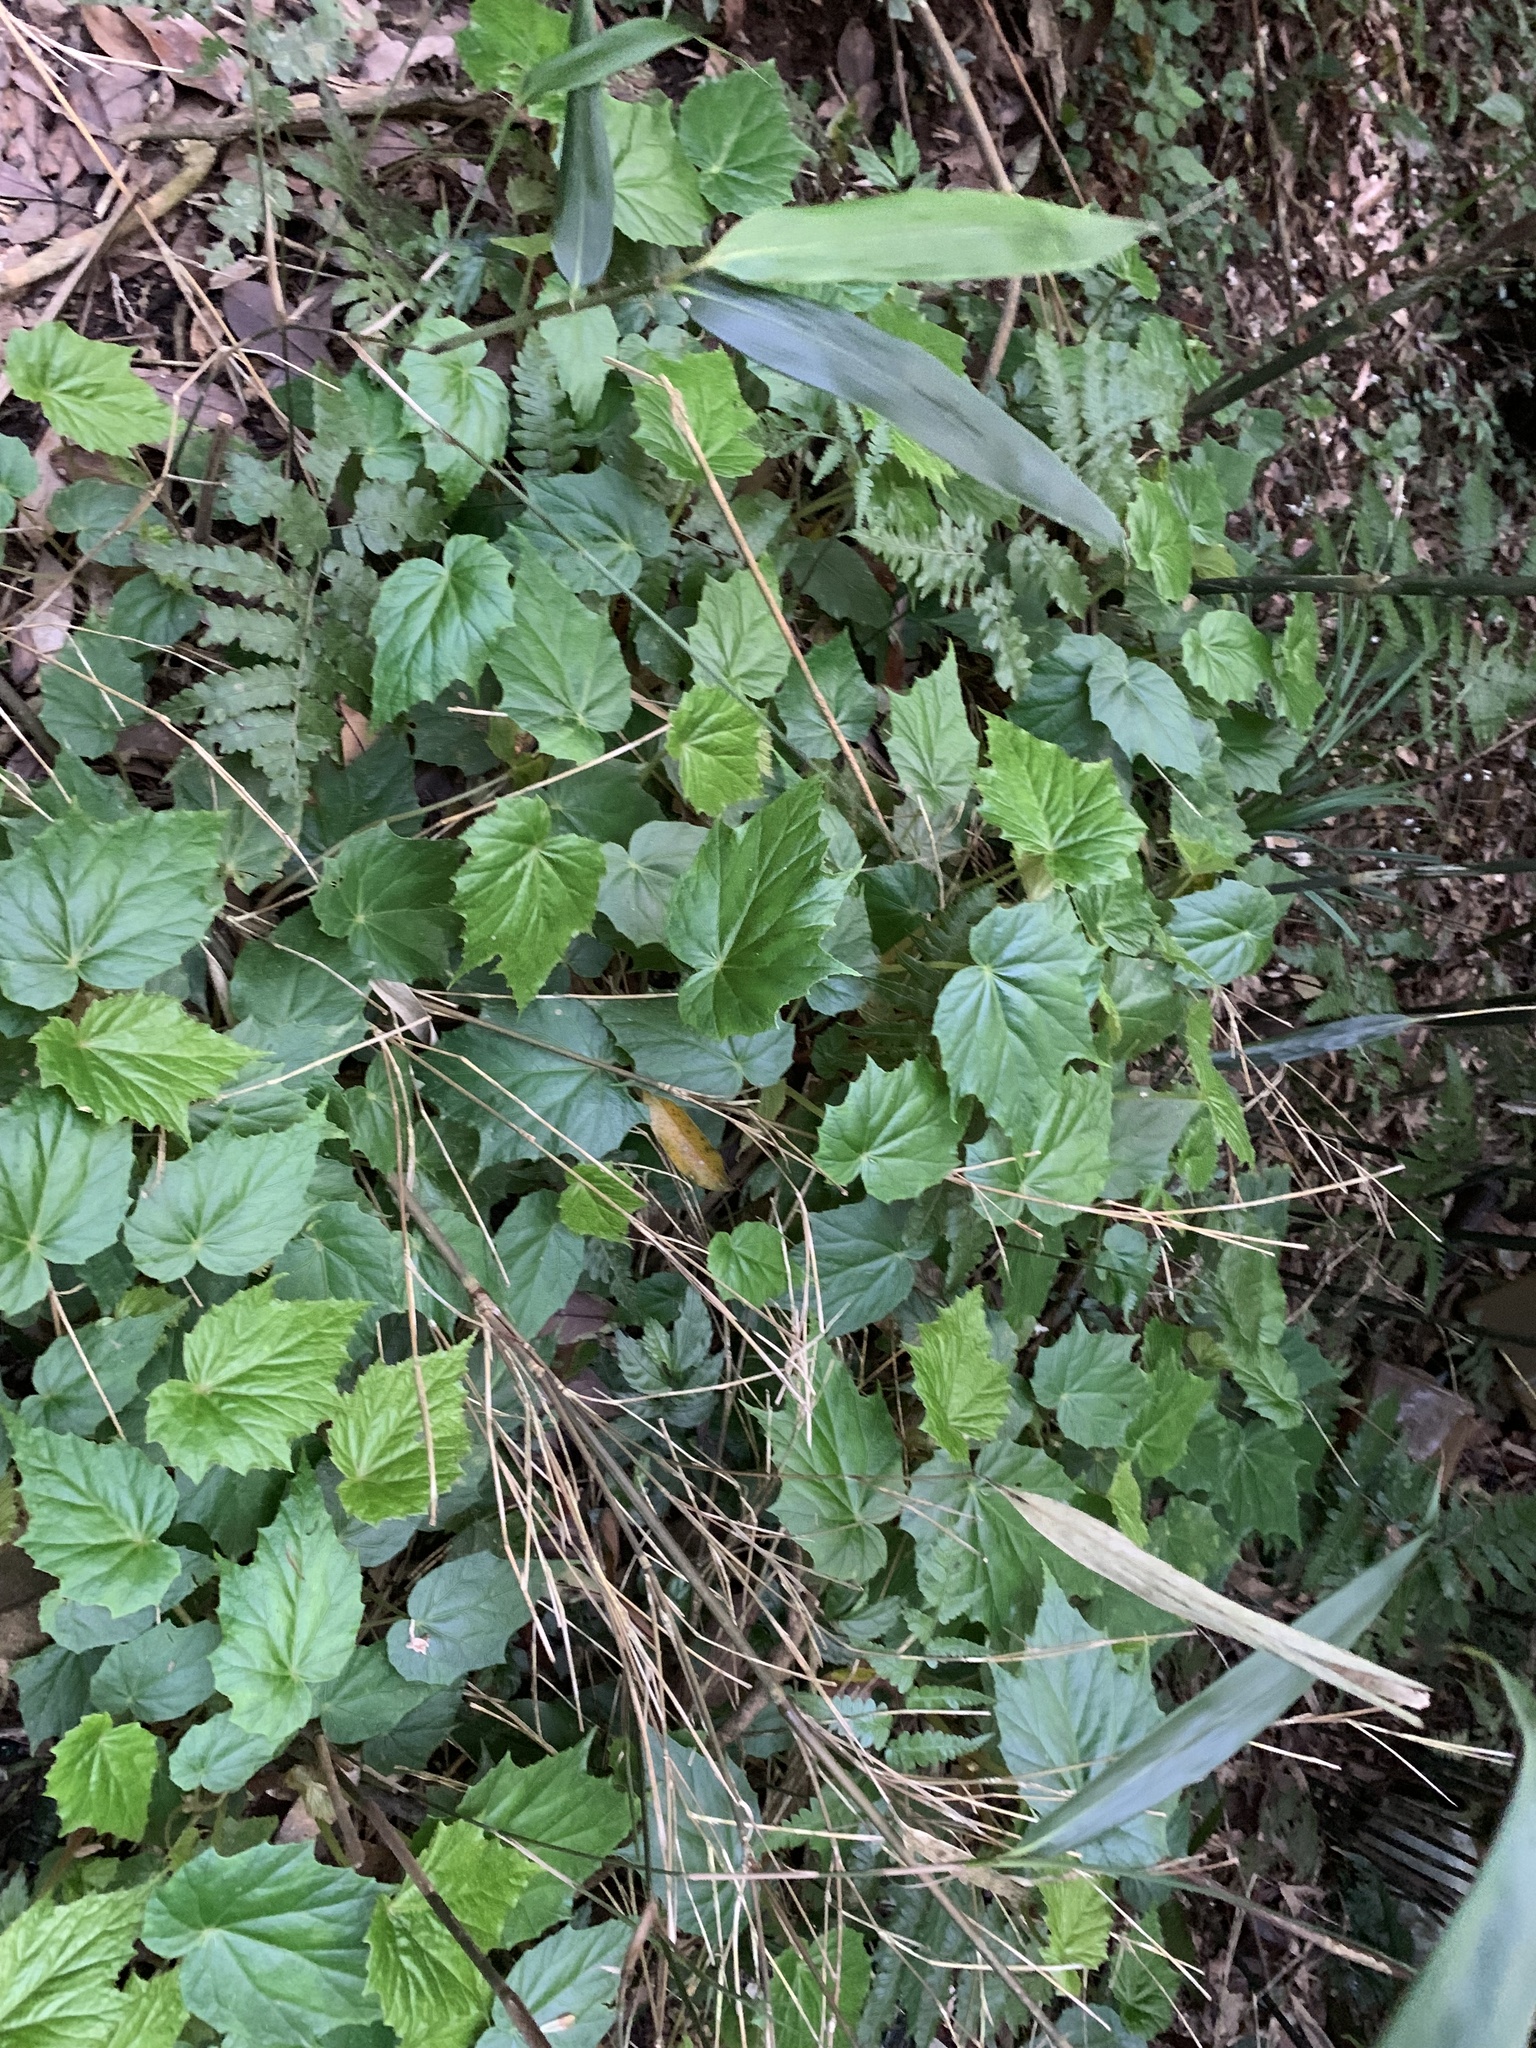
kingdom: Plantae
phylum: Tracheophyta
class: Magnoliopsida
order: Cucurbitales
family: Begoniaceae
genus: Begonia
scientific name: Begonia formosana
